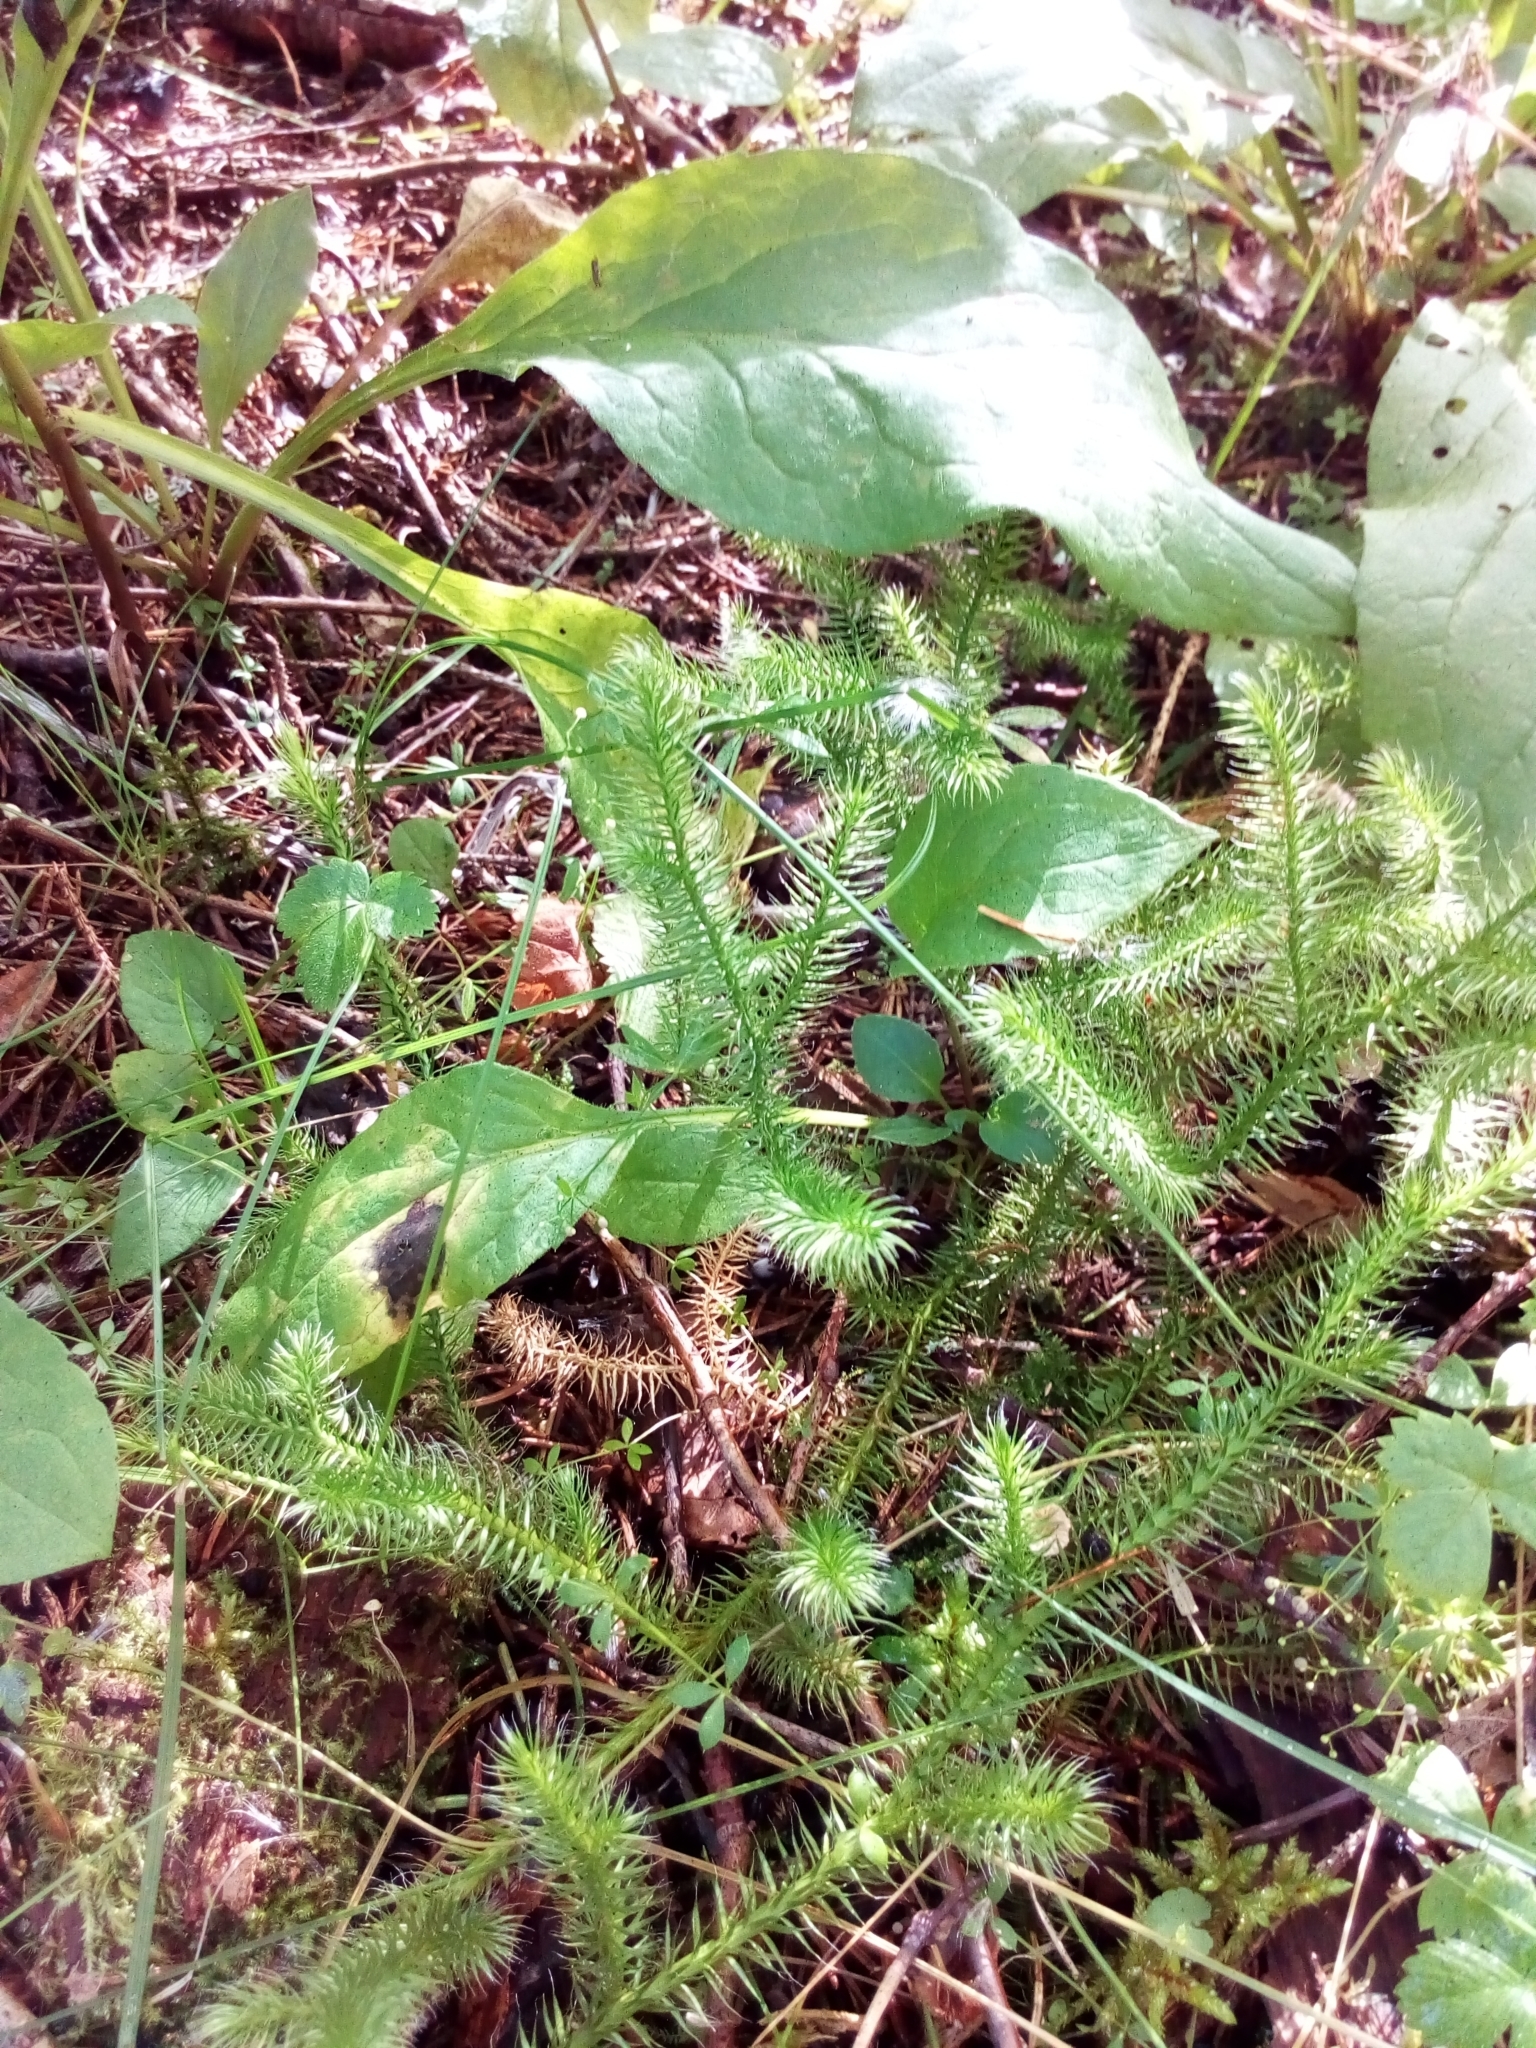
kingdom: Plantae
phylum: Tracheophyta
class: Lycopodiopsida
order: Lycopodiales
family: Lycopodiaceae
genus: Lycopodium
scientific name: Lycopodium clavatum
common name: Stag's-horn clubmoss
